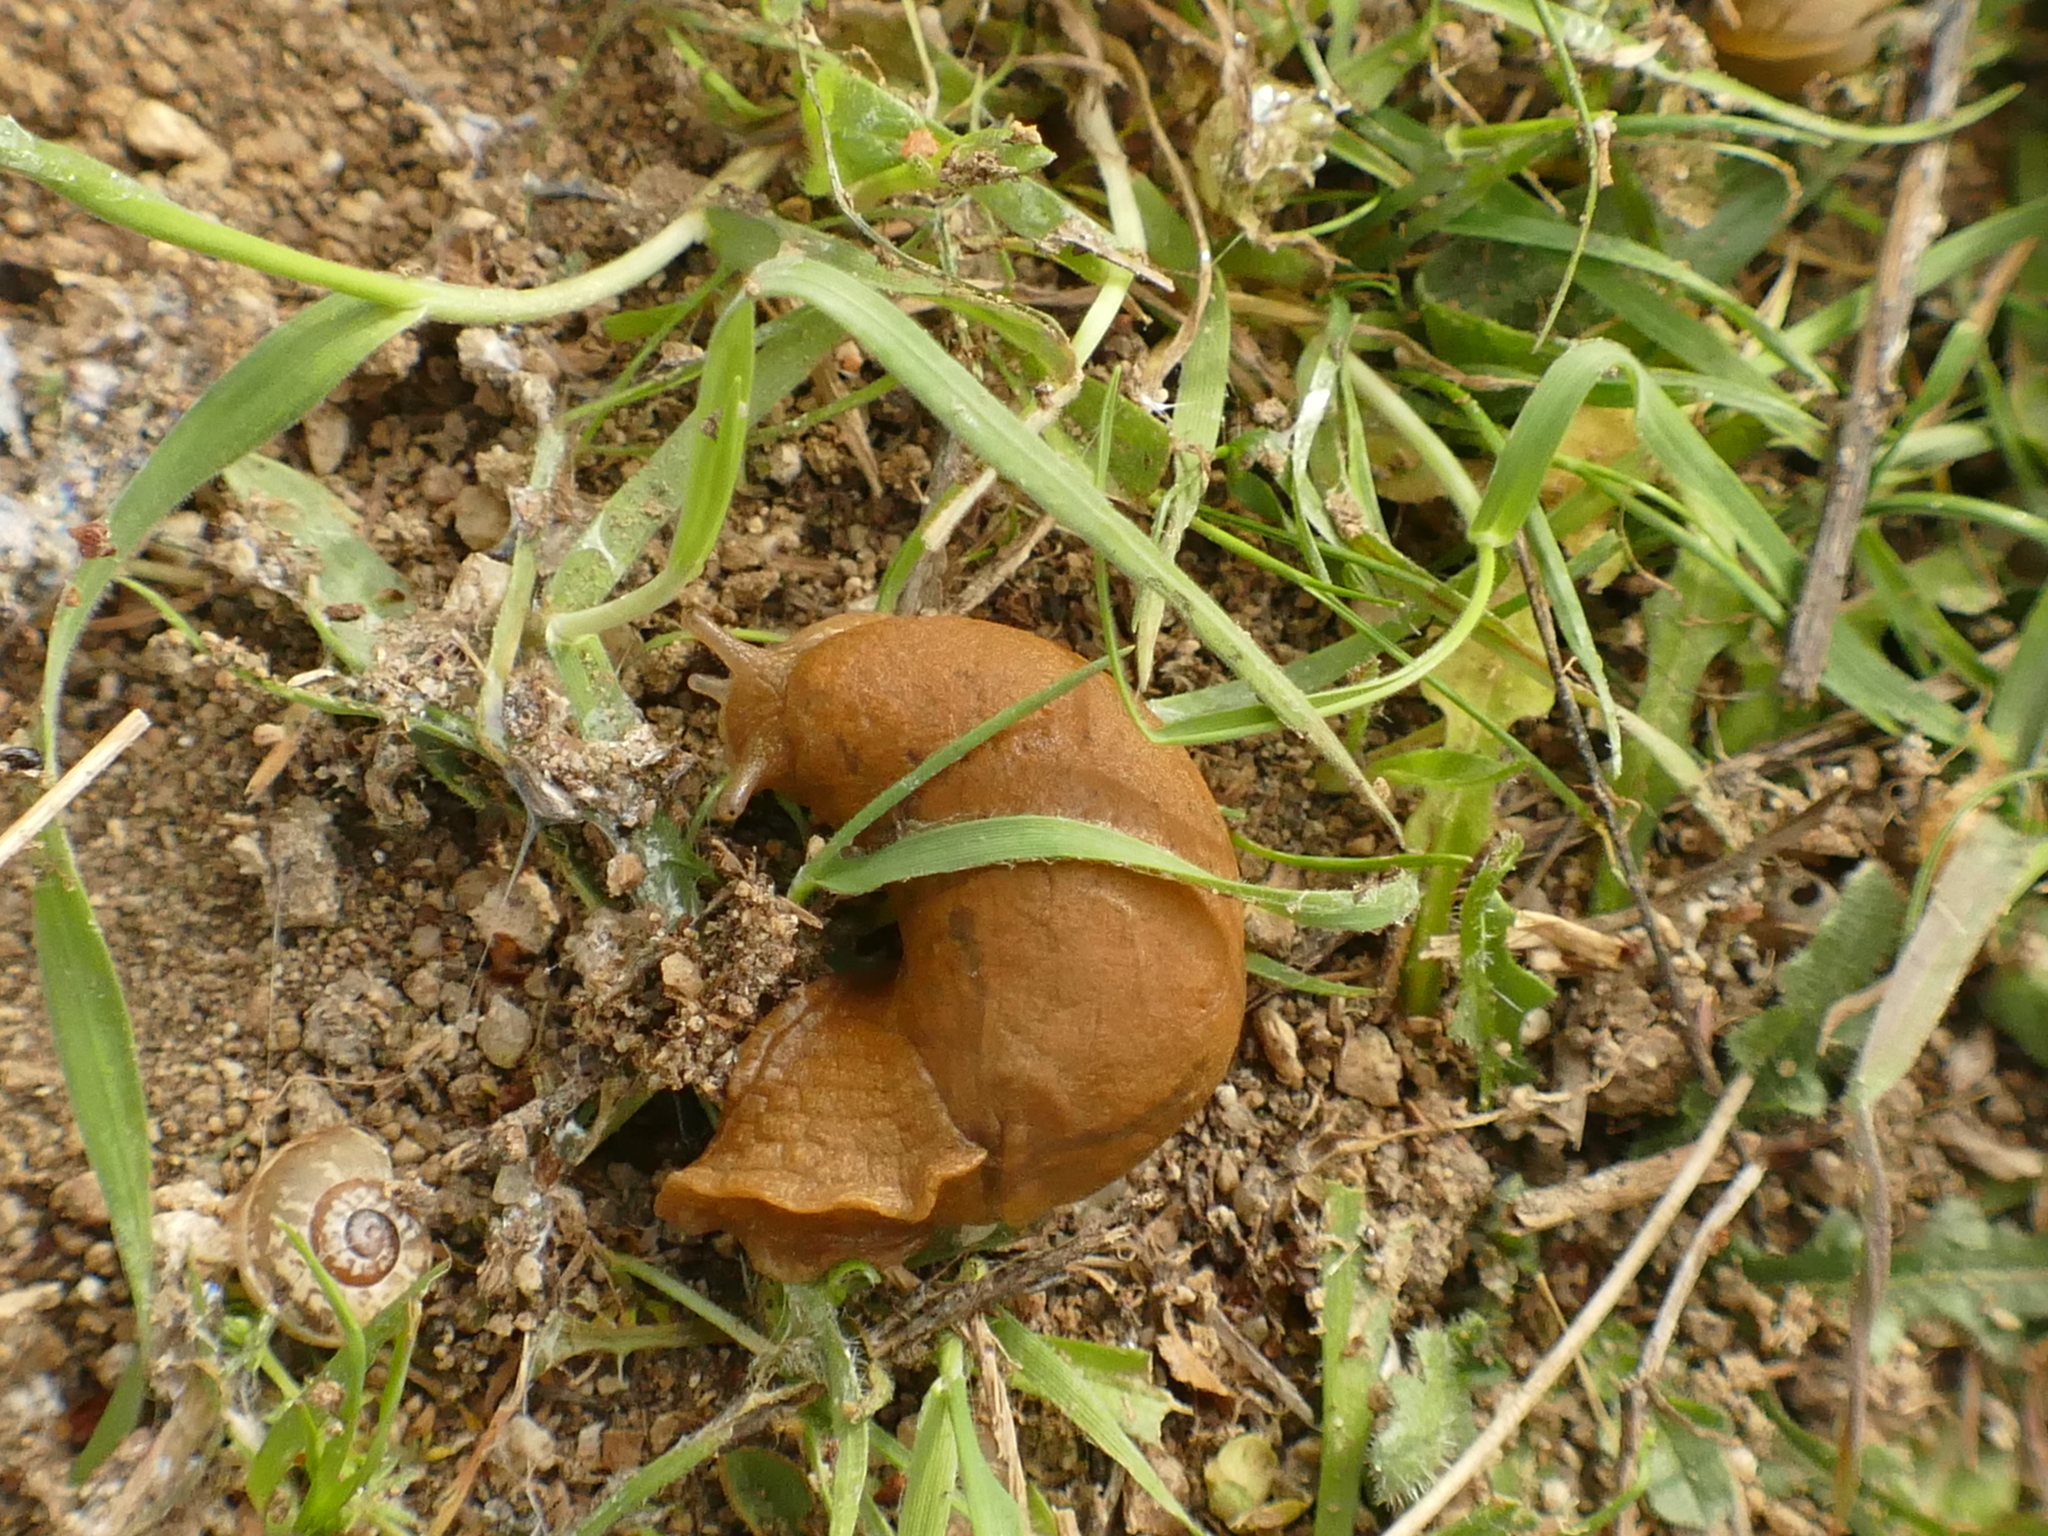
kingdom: Animalia
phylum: Mollusca
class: Gastropoda
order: Stylommatophora
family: Parmacellidae
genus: Drusia
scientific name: Drusia valenciennii
